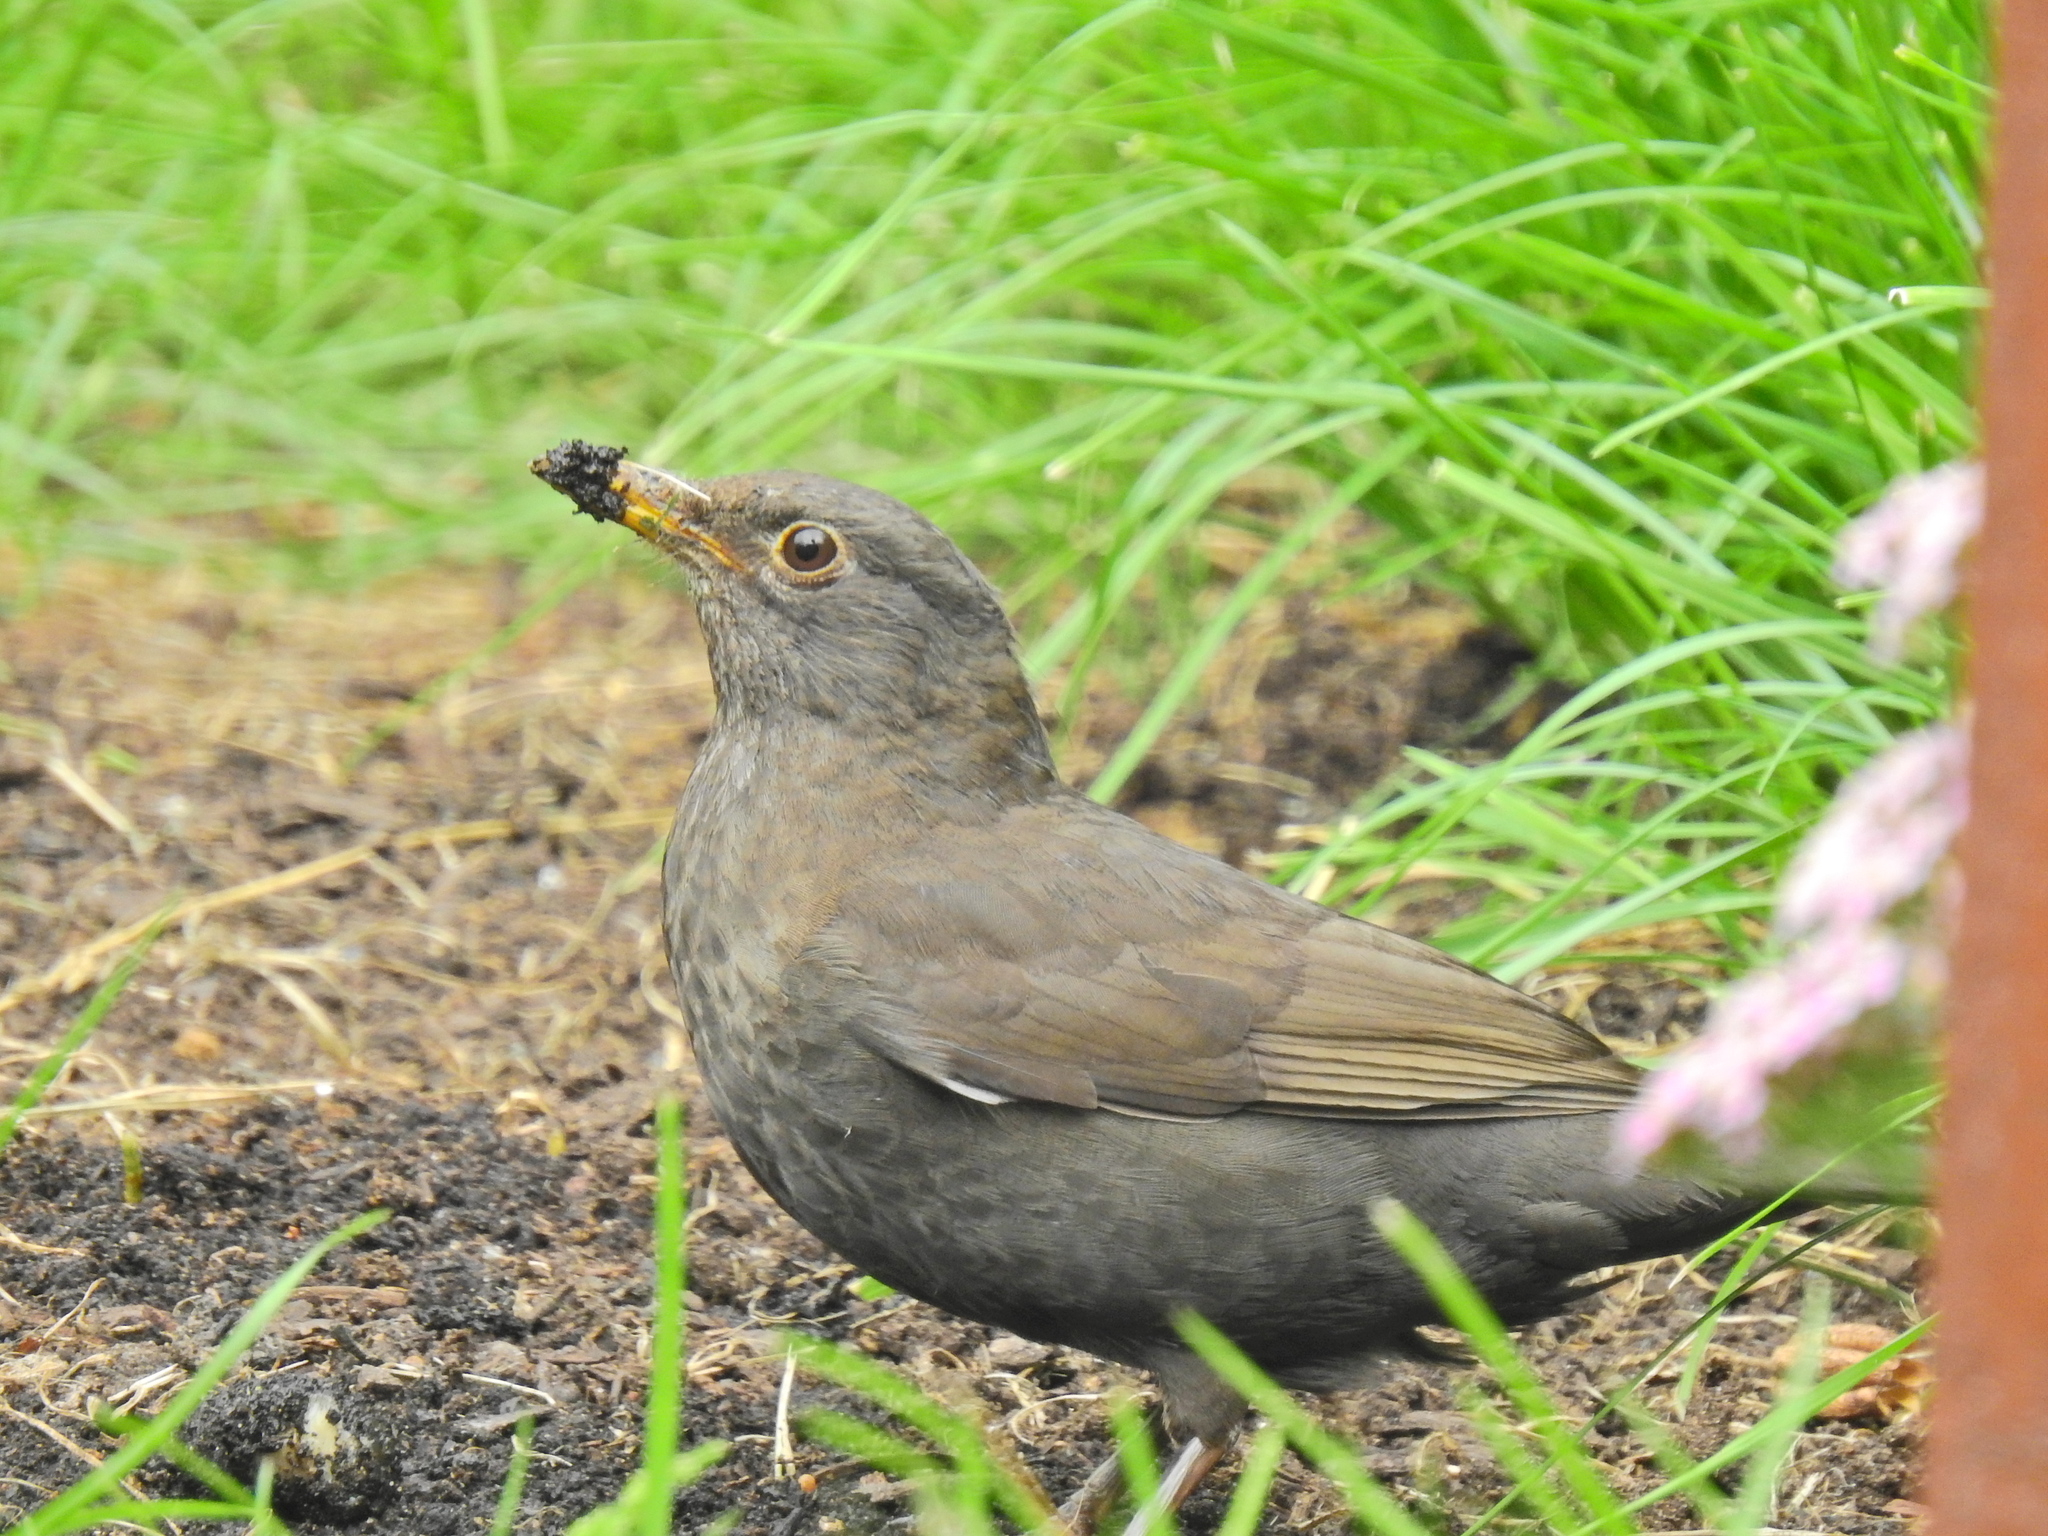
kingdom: Animalia
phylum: Chordata
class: Aves
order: Passeriformes
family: Turdidae
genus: Turdus
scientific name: Turdus merula
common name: Common blackbird
